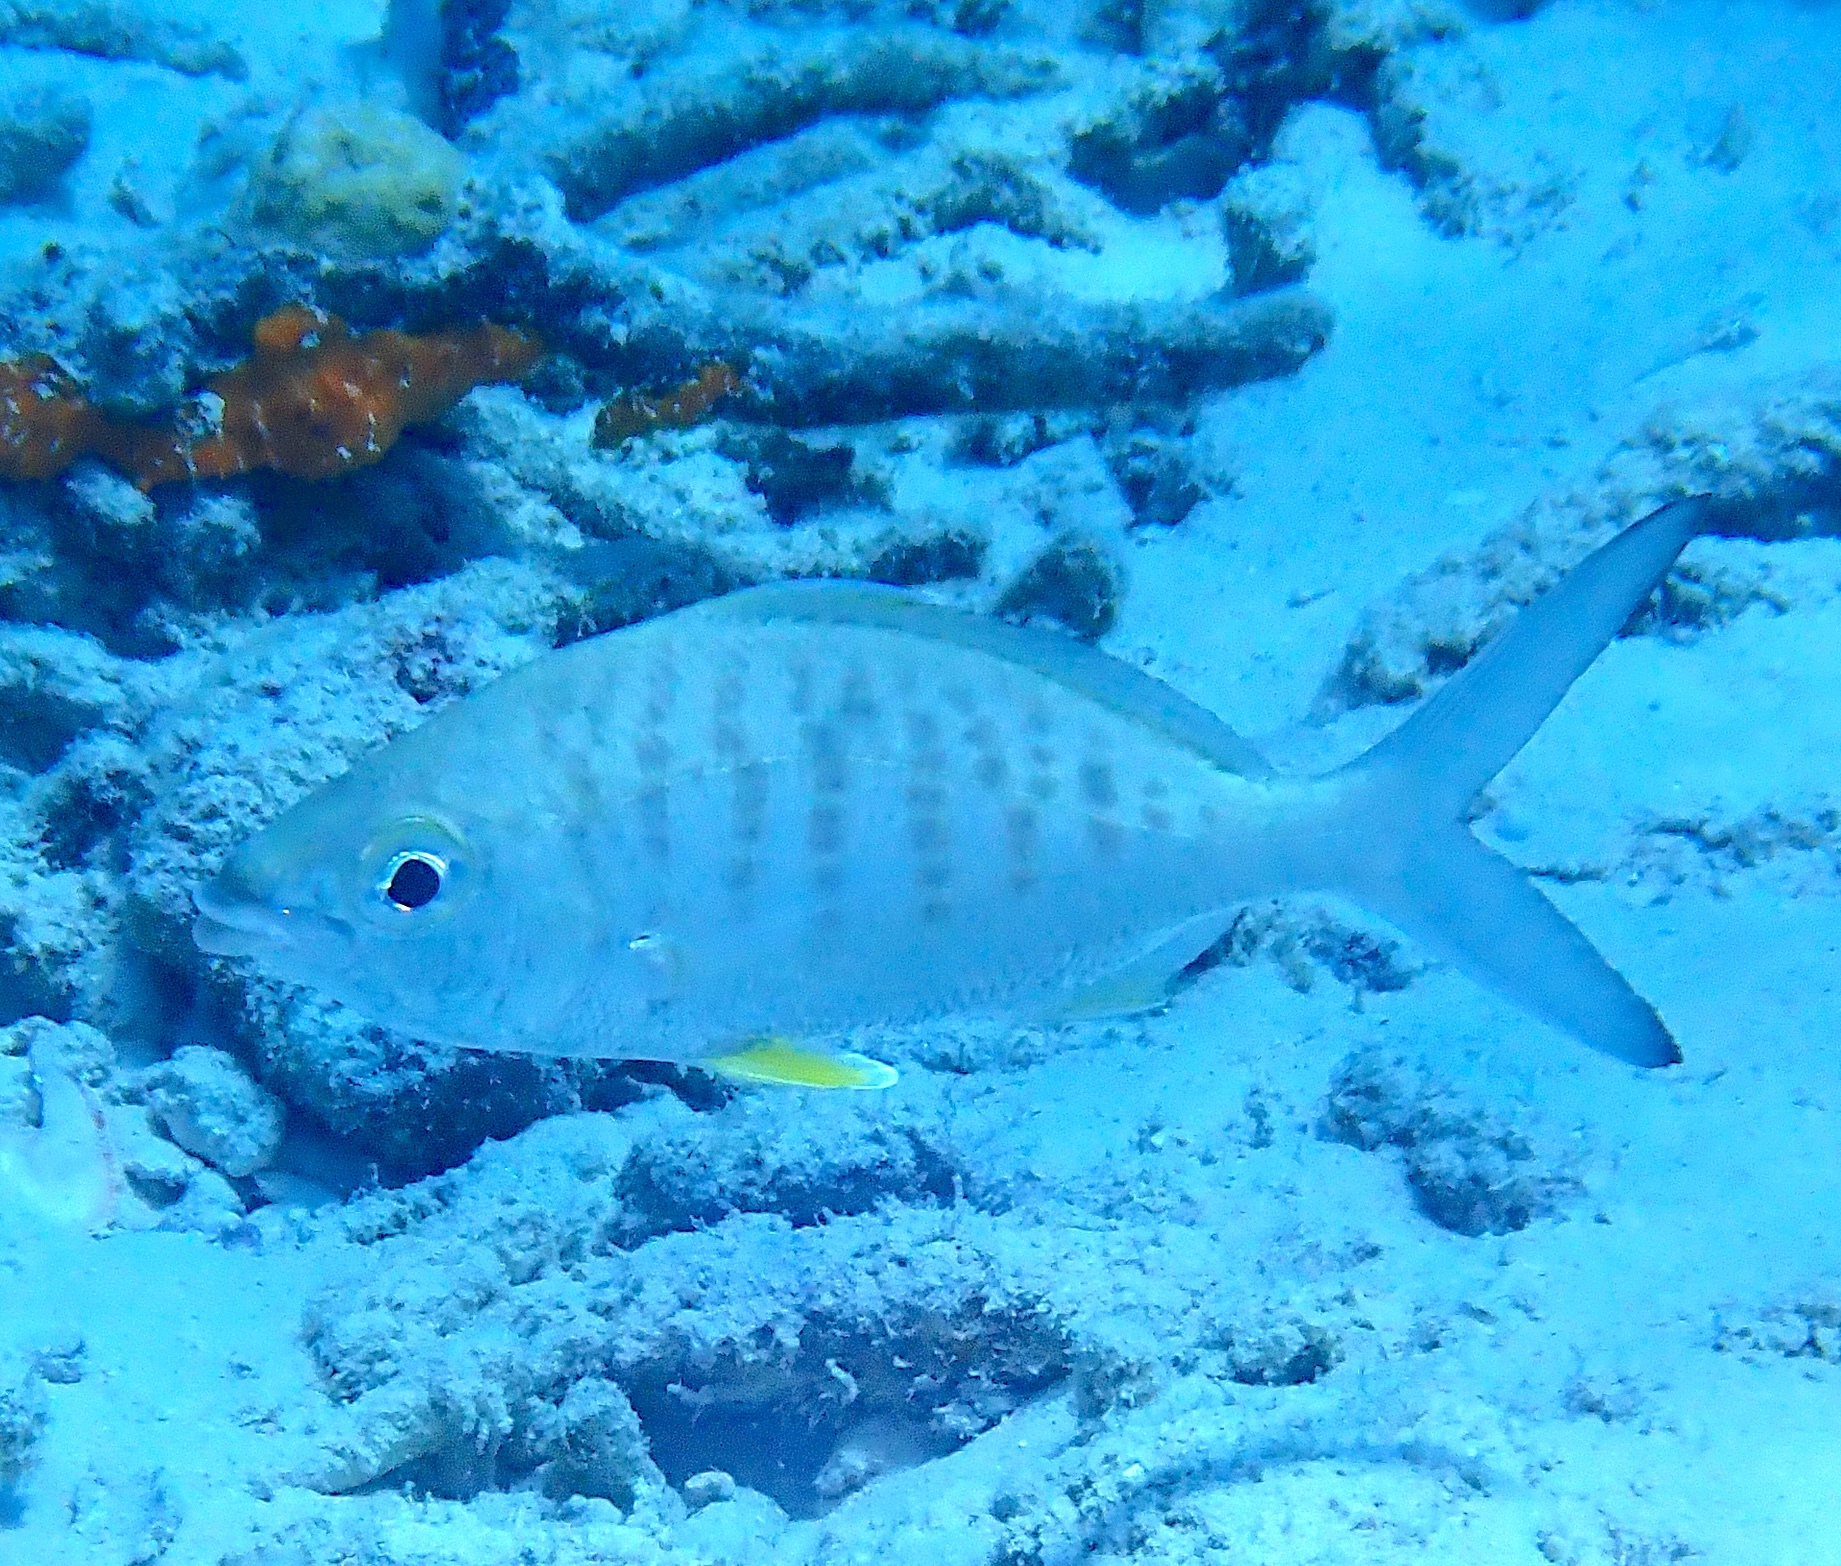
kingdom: Animalia
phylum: Chordata
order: Perciformes
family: Gerreidae
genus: Gerres
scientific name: Gerres cinereus
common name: Hedow
